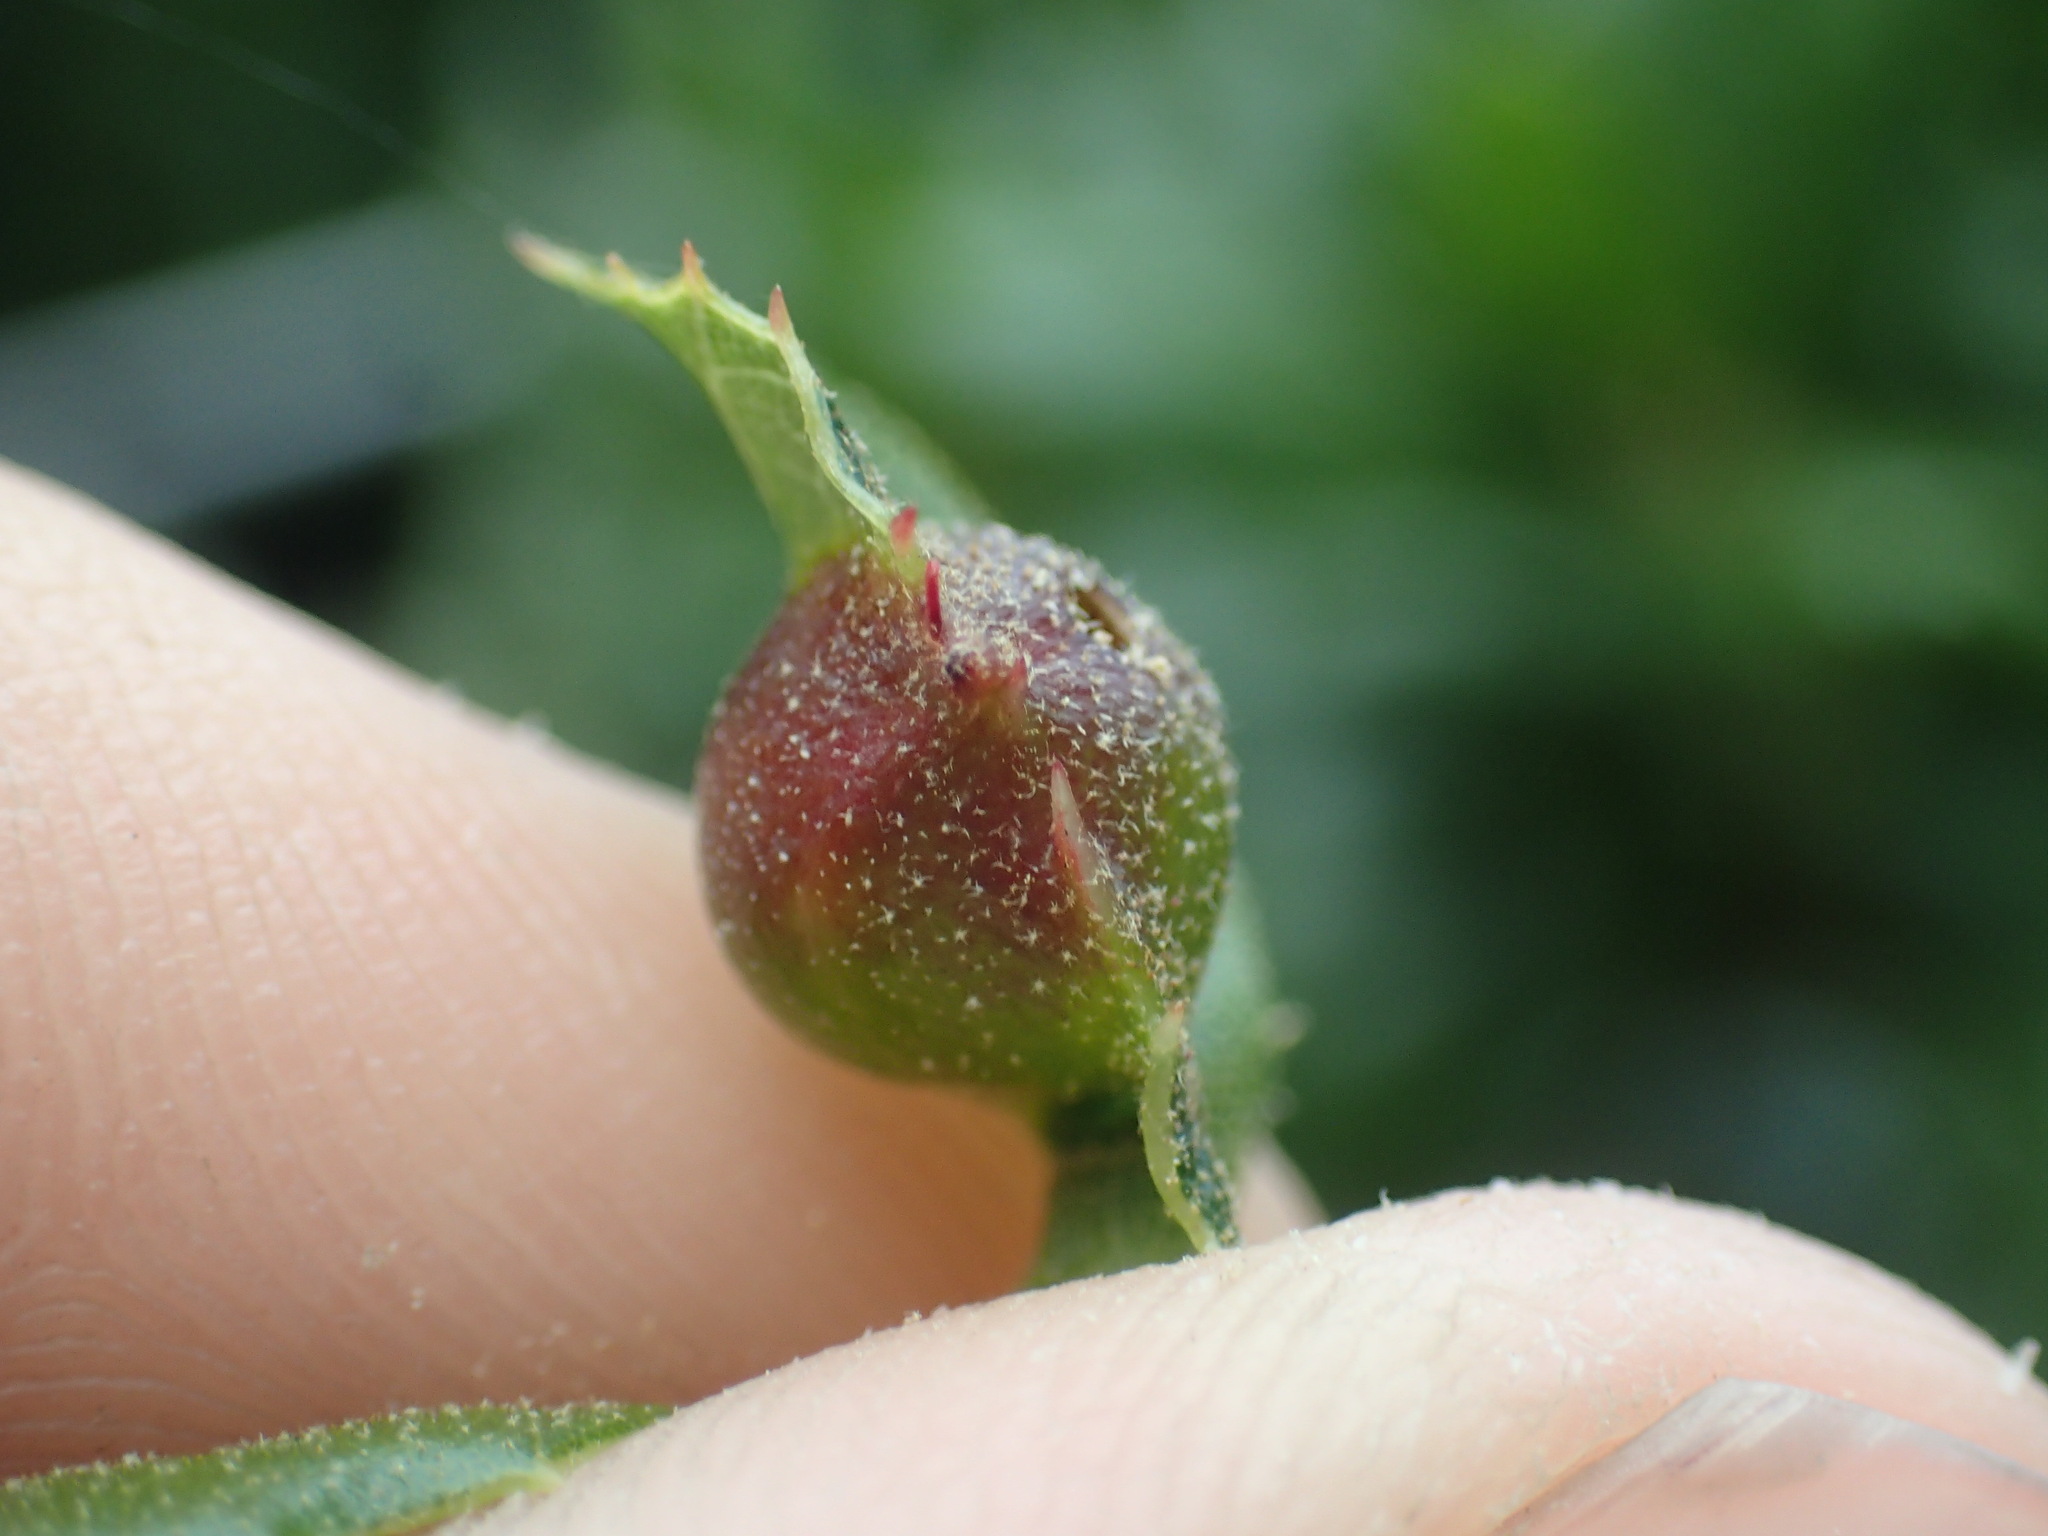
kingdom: Animalia
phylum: Arthropoda
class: Insecta
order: Hymenoptera
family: Cynipidae
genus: Callirhytis
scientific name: Callirhytis
